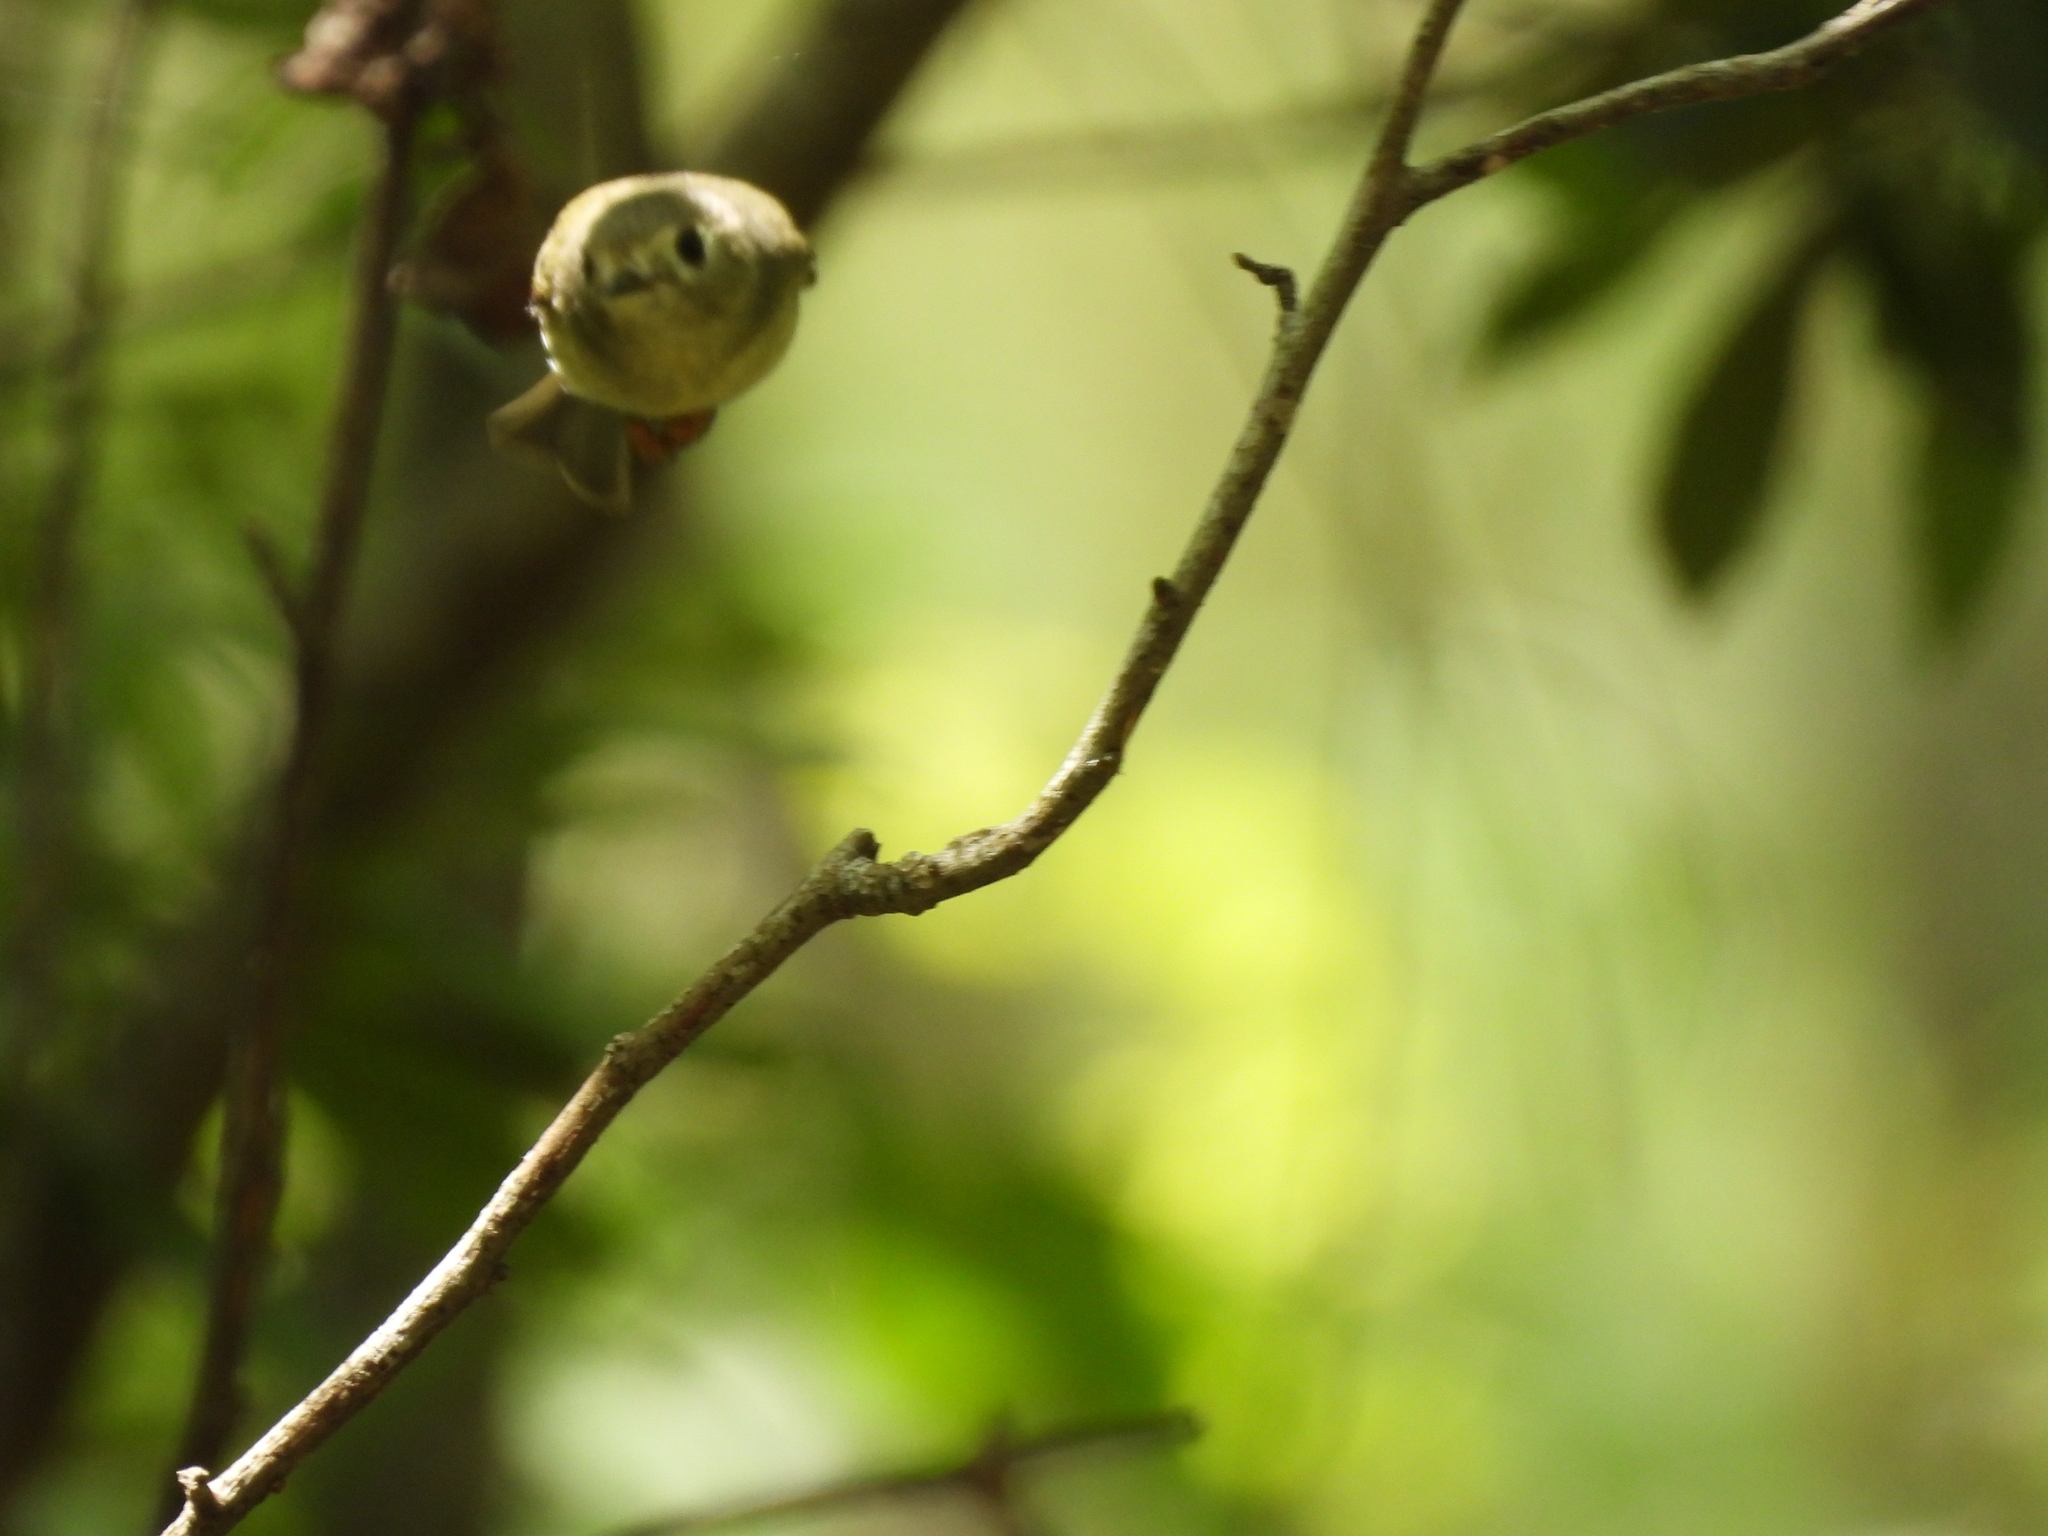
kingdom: Animalia
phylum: Chordata
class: Aves
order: Passeriformes
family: Regulidae
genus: Regulus
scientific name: Regulus calendula
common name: Ruby-crowned kinglet
